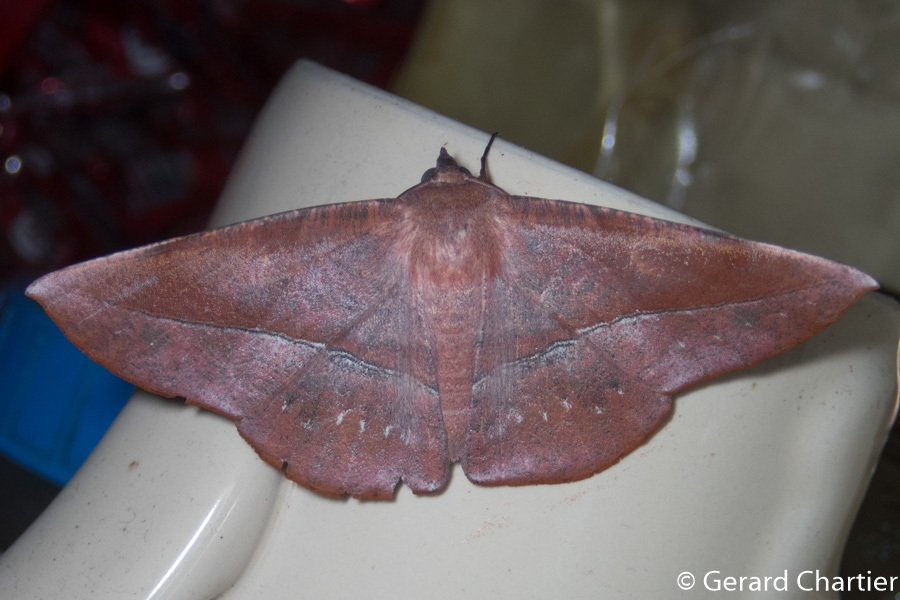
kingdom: Animalia
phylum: Arthropoda
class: Insecta
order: Lepidoptera
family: Geometridae
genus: Sarcinodes
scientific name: Sarcinodes sumatraria
